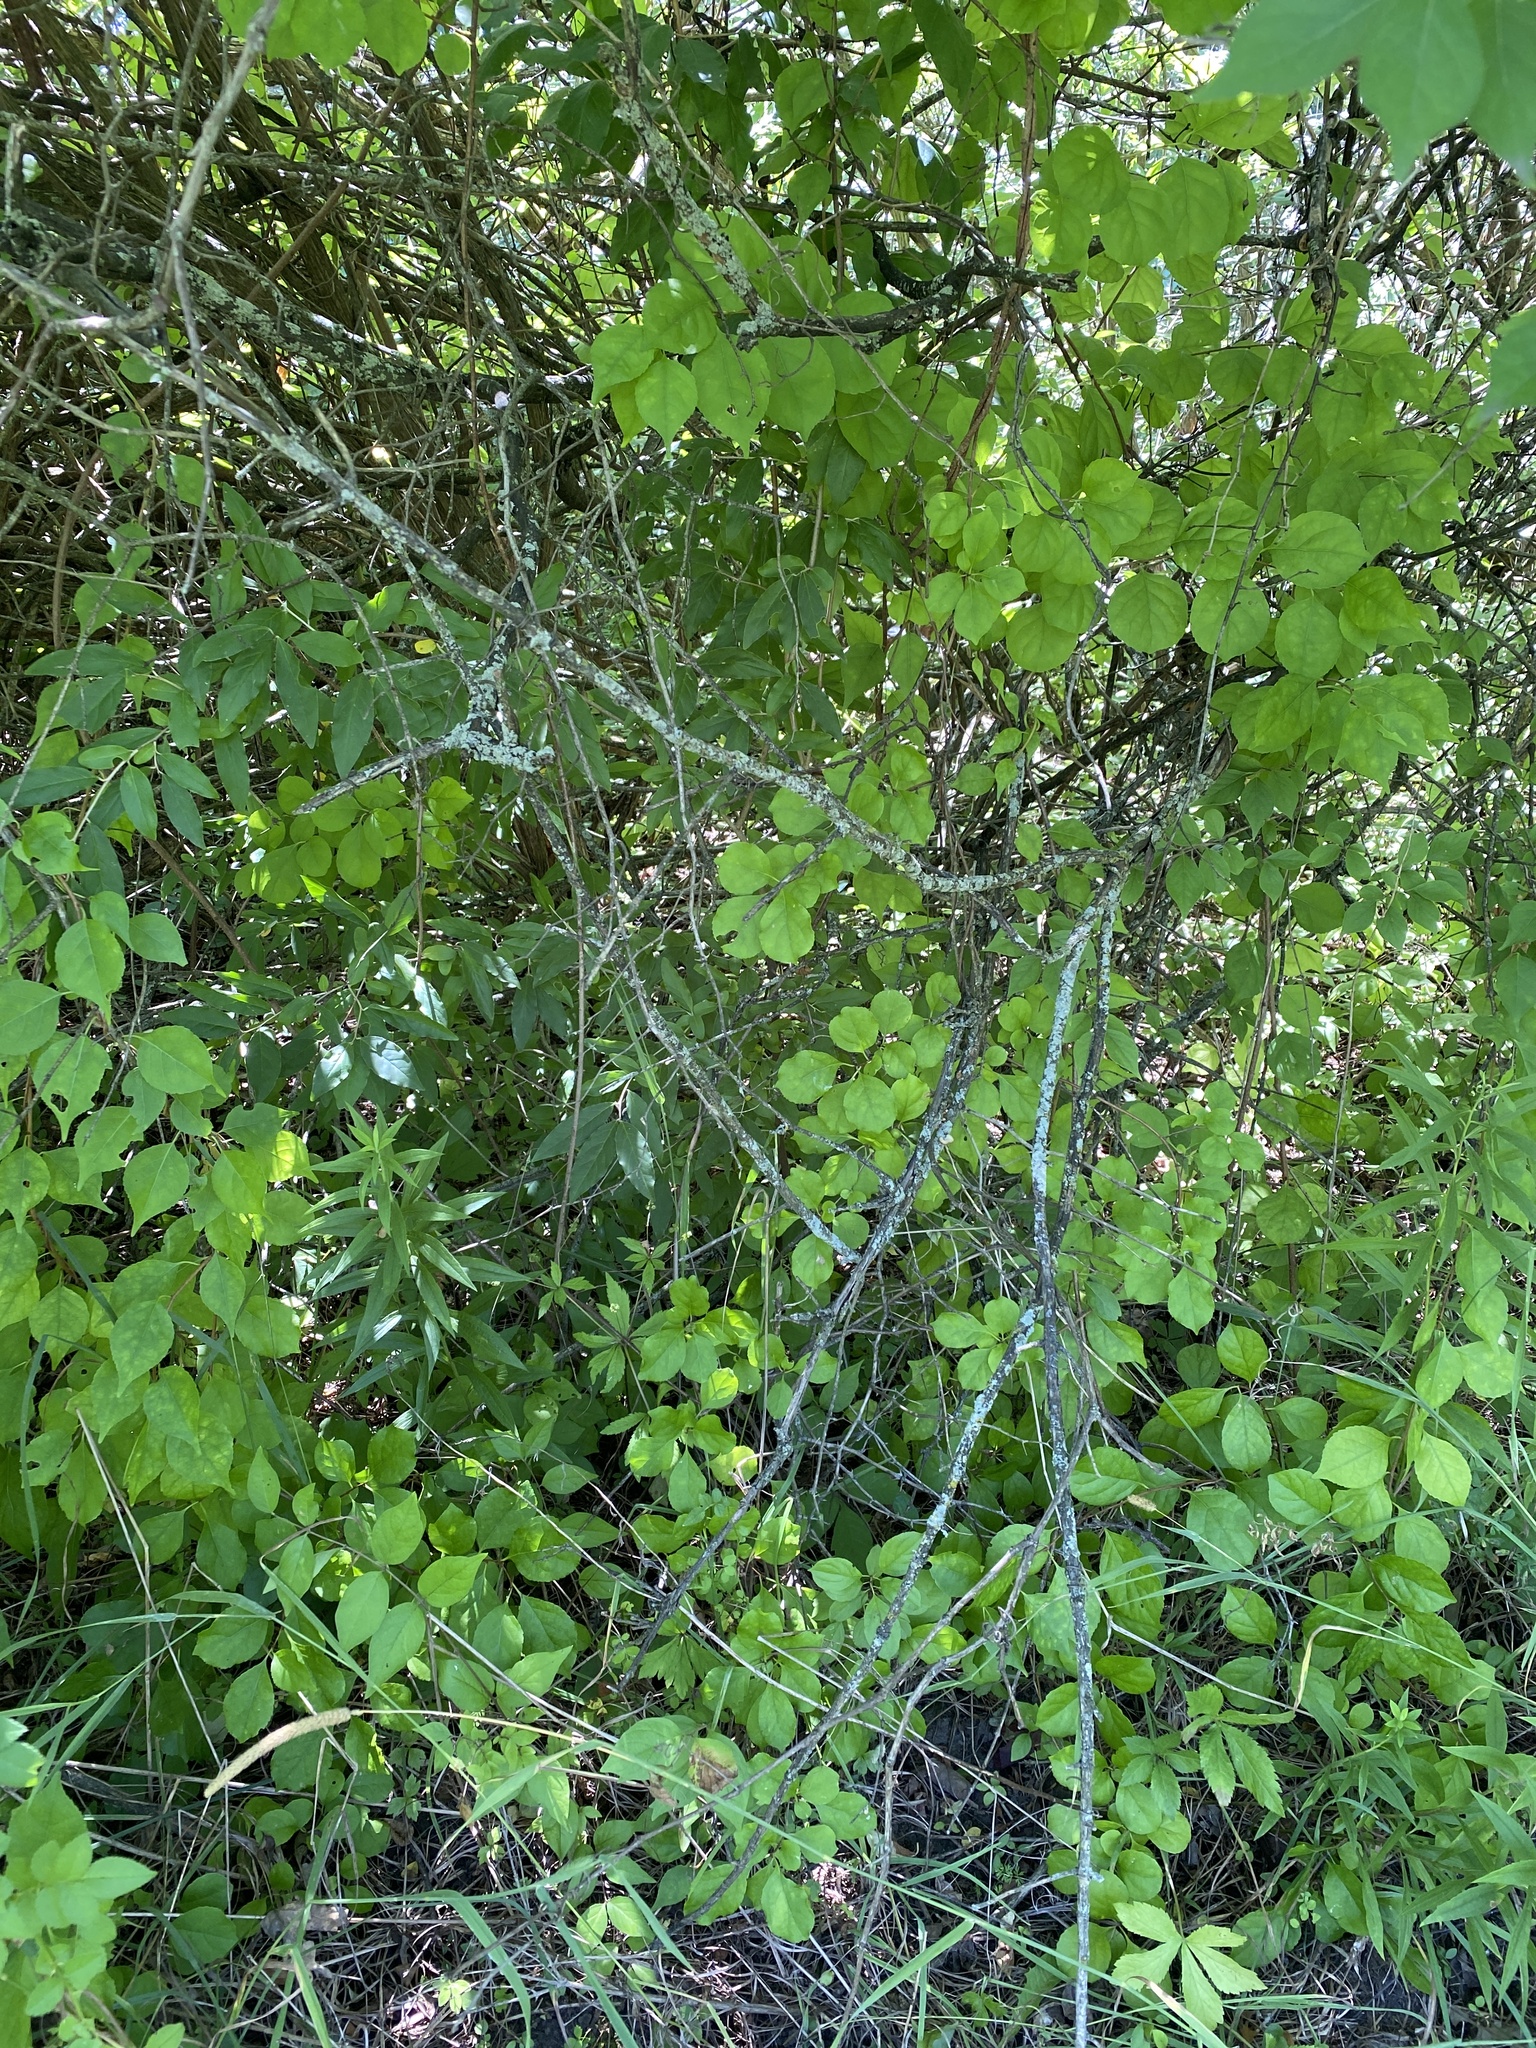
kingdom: Plantae
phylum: Tracheophyta
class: Magnoliopsida
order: Celastrales
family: Celastraceae
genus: Celastrus
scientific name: Celastrus orbiculatus
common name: Oriental bittersweet
